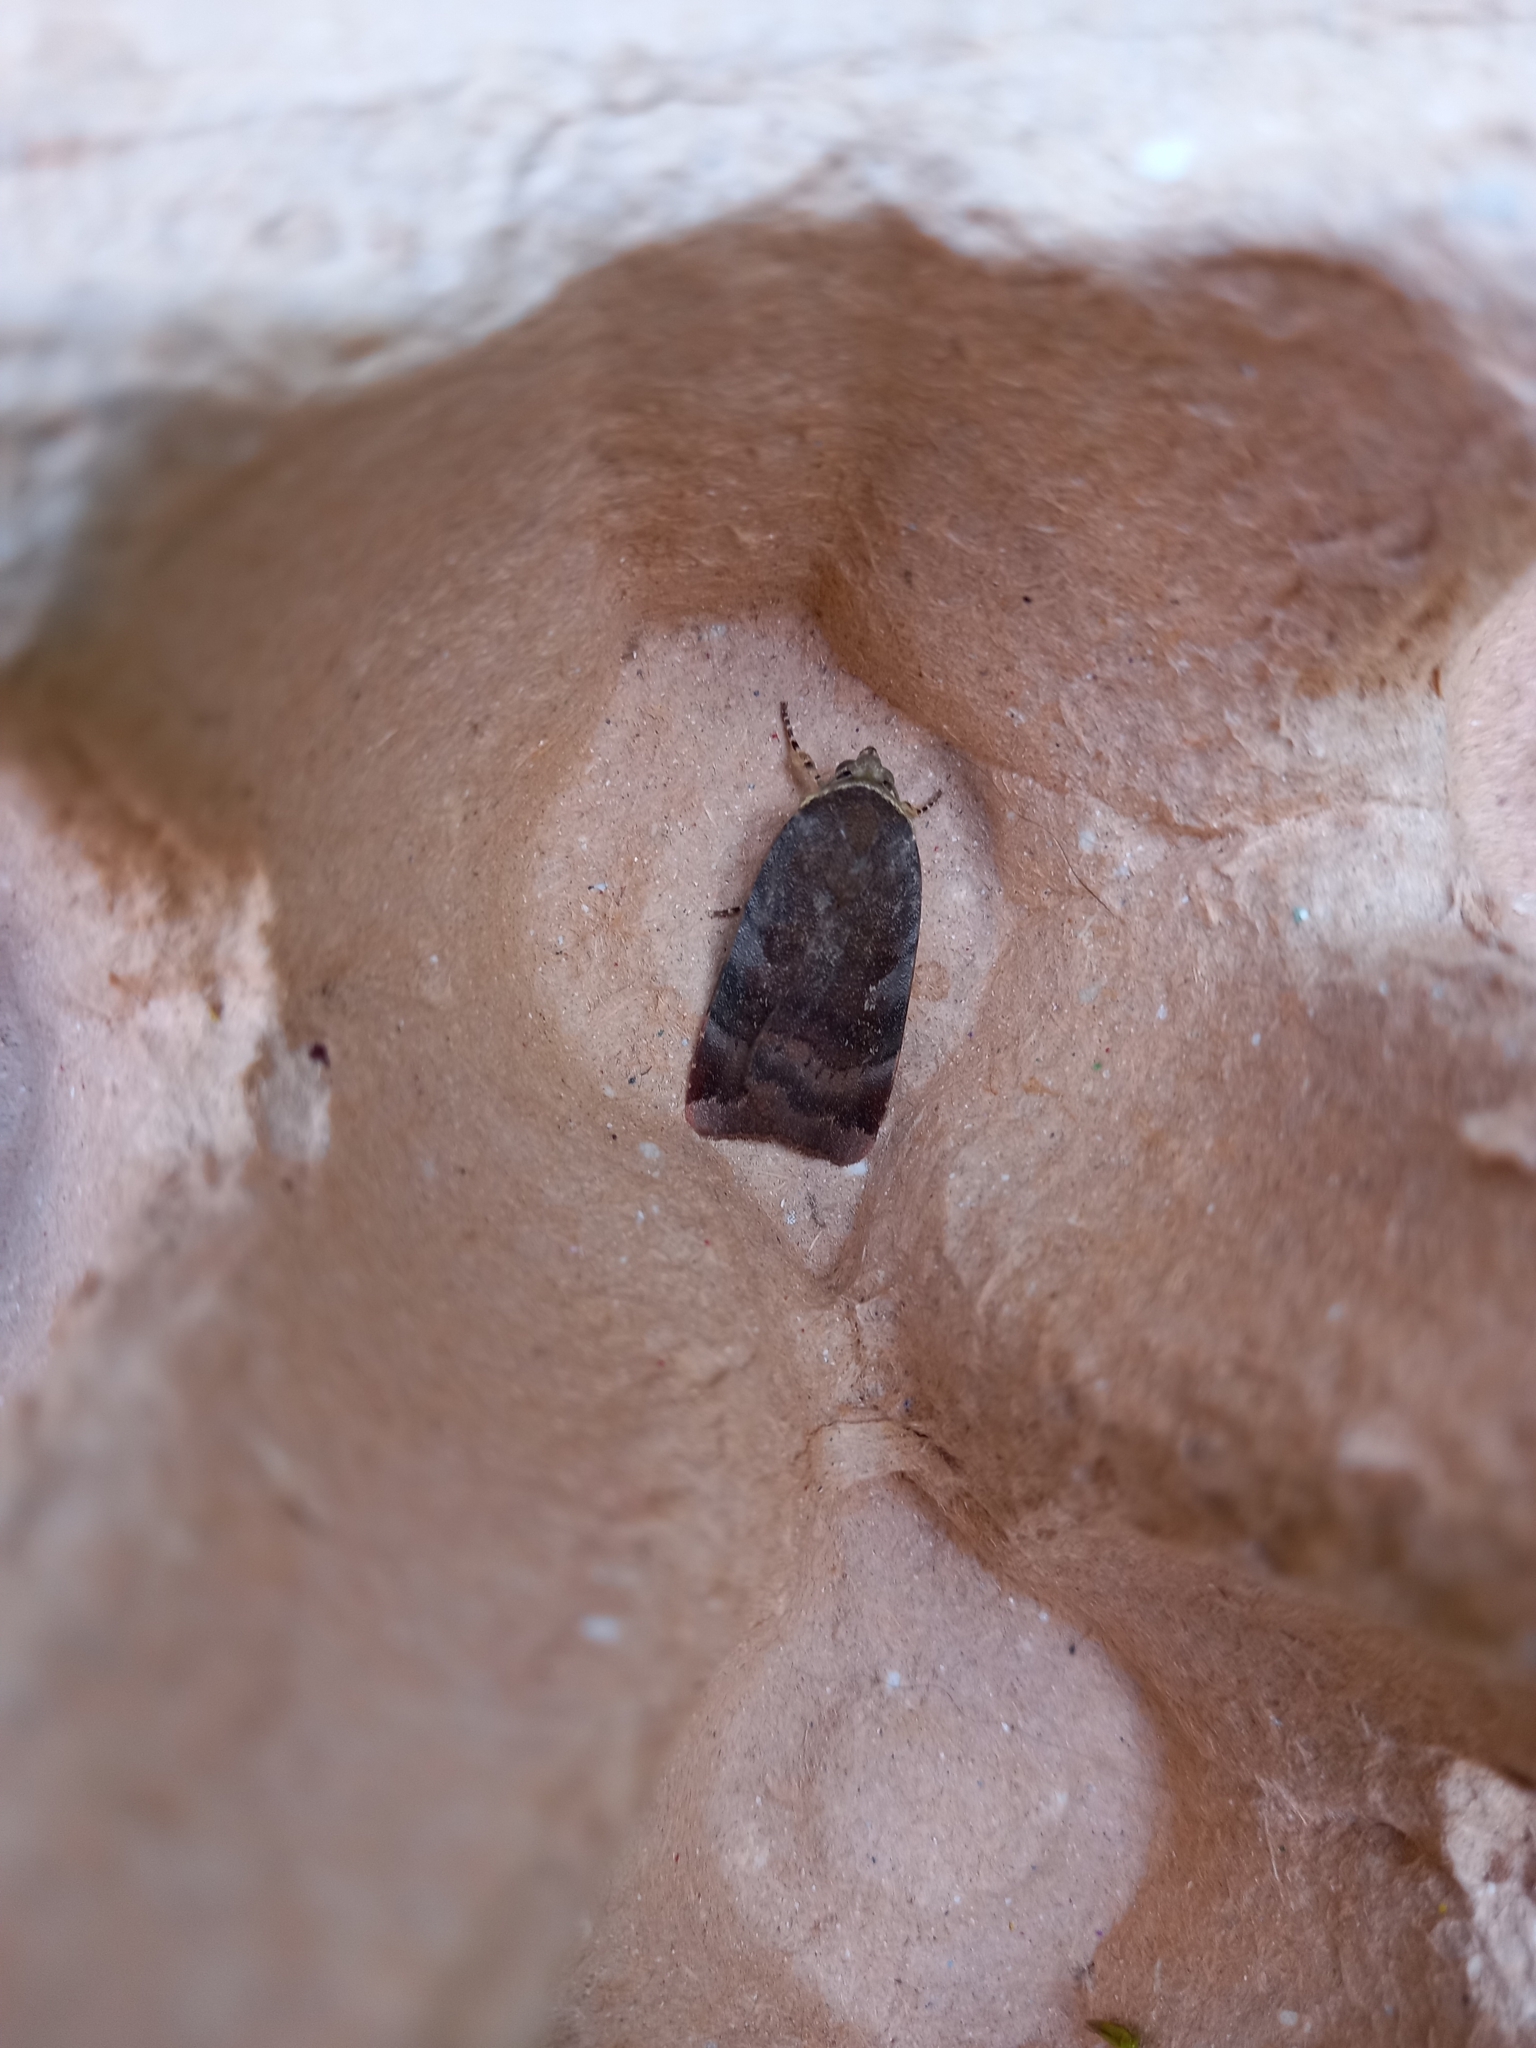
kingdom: Animalia
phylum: Arthropoda
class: Insecta
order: Lepidoptera
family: Noctuidae
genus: Noctua
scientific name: Noctua janthe
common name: Lesser broad-bordered yellow underwing
